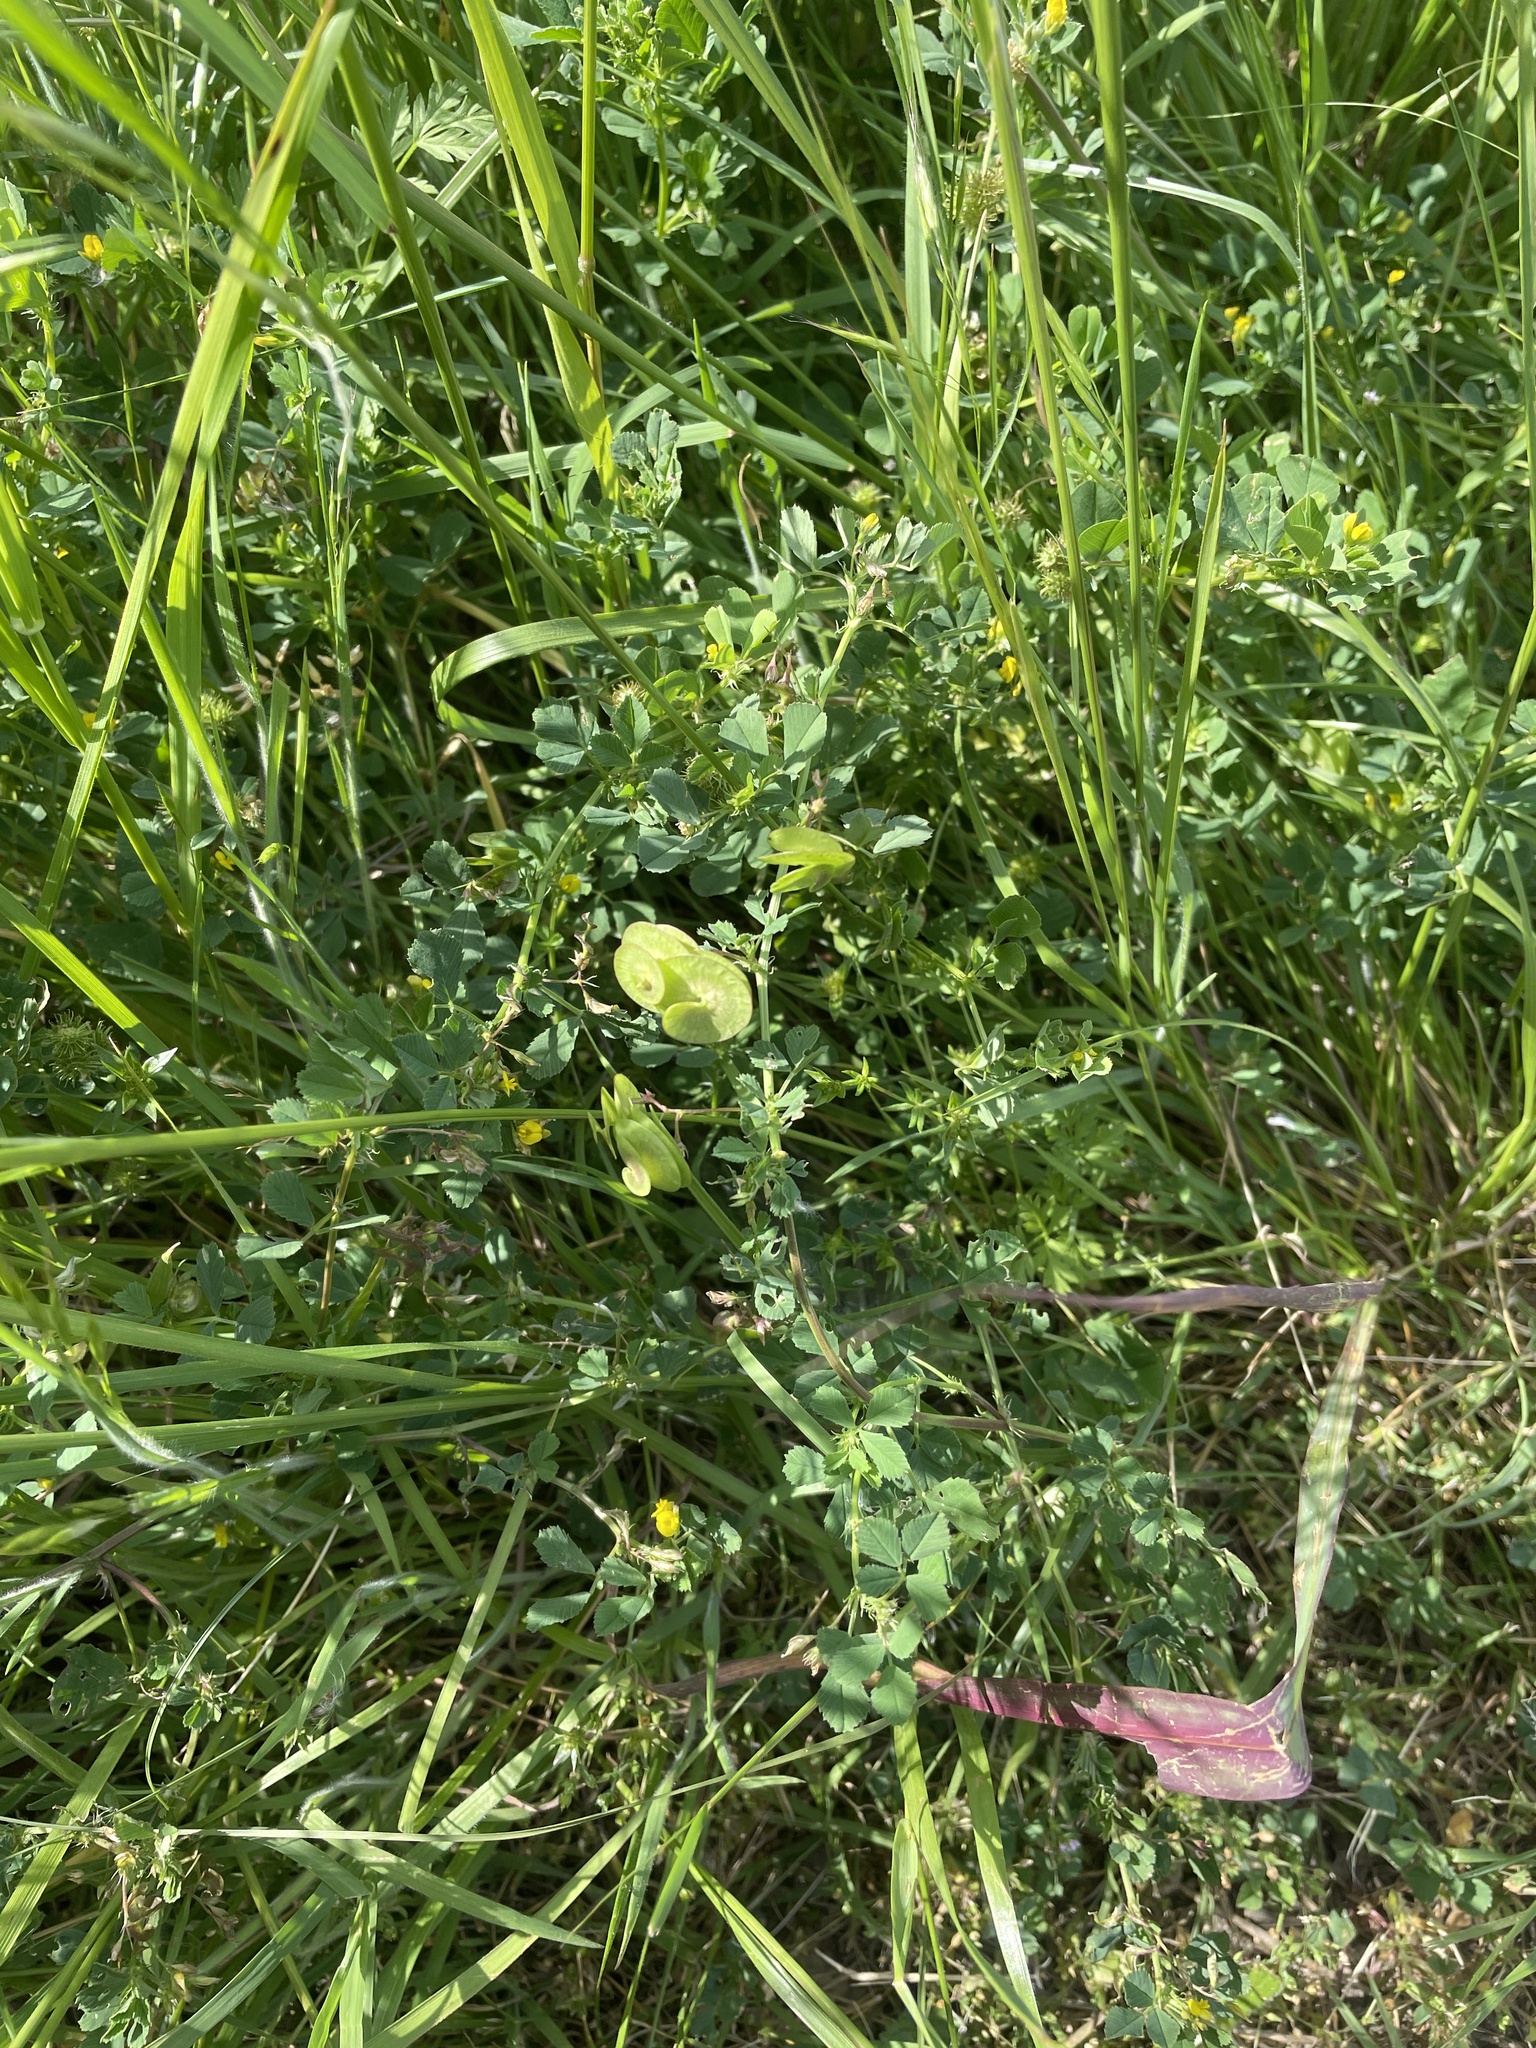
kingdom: Plantae
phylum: Tracheophyta
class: Magnoliopsida
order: Fabales
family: Fabaceae
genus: Medicago
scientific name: Medicago orbicularis
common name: Button medick
